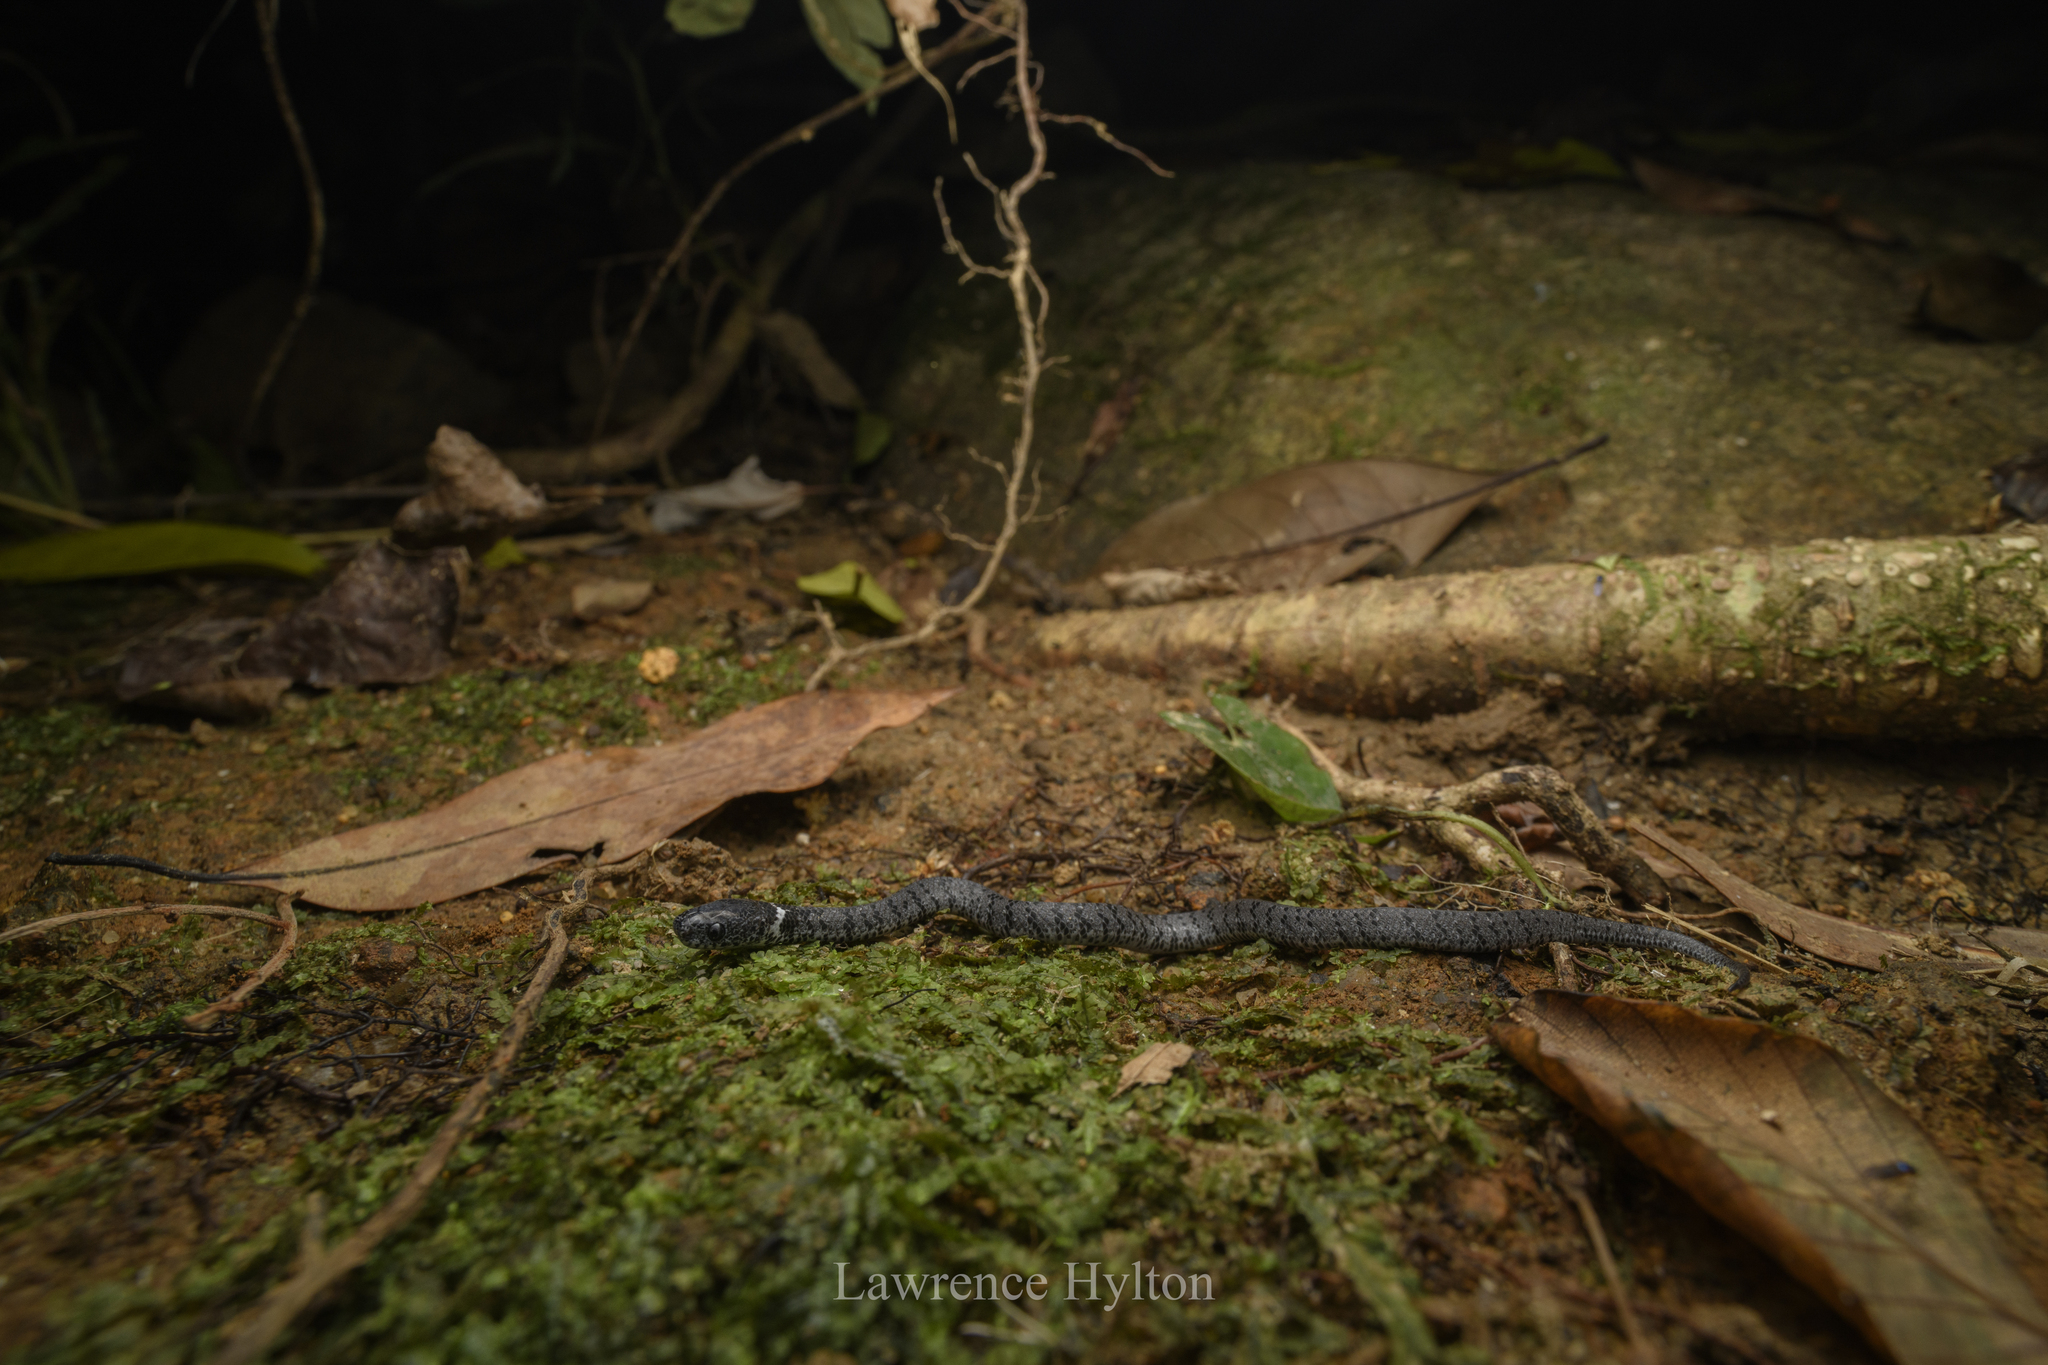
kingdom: Animalia
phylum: Chordata
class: Squamata
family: Pareidae
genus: Pareas
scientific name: Pareas margaritophorus
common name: Mountain slug snake
